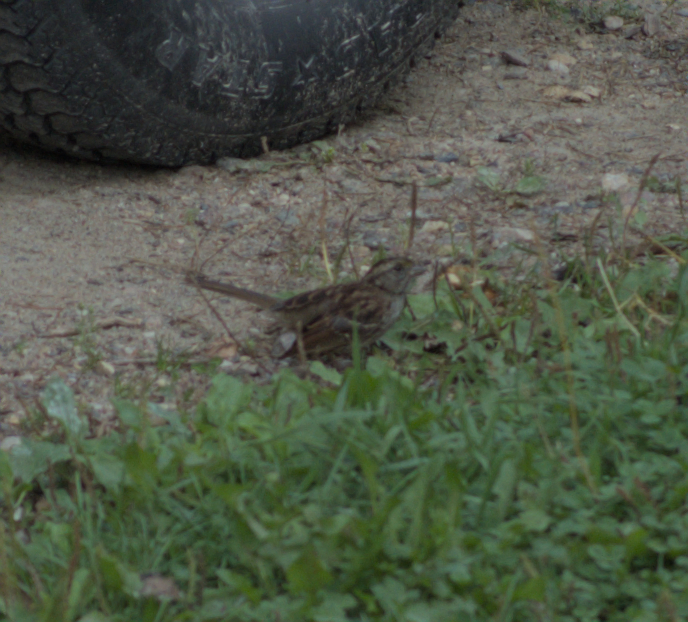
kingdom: Animalia
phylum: Chordata
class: Aves
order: Passeriformes
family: Passerellidae
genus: Zonotrichia
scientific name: Zonotrichia albicollis
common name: White-throated sparrow
